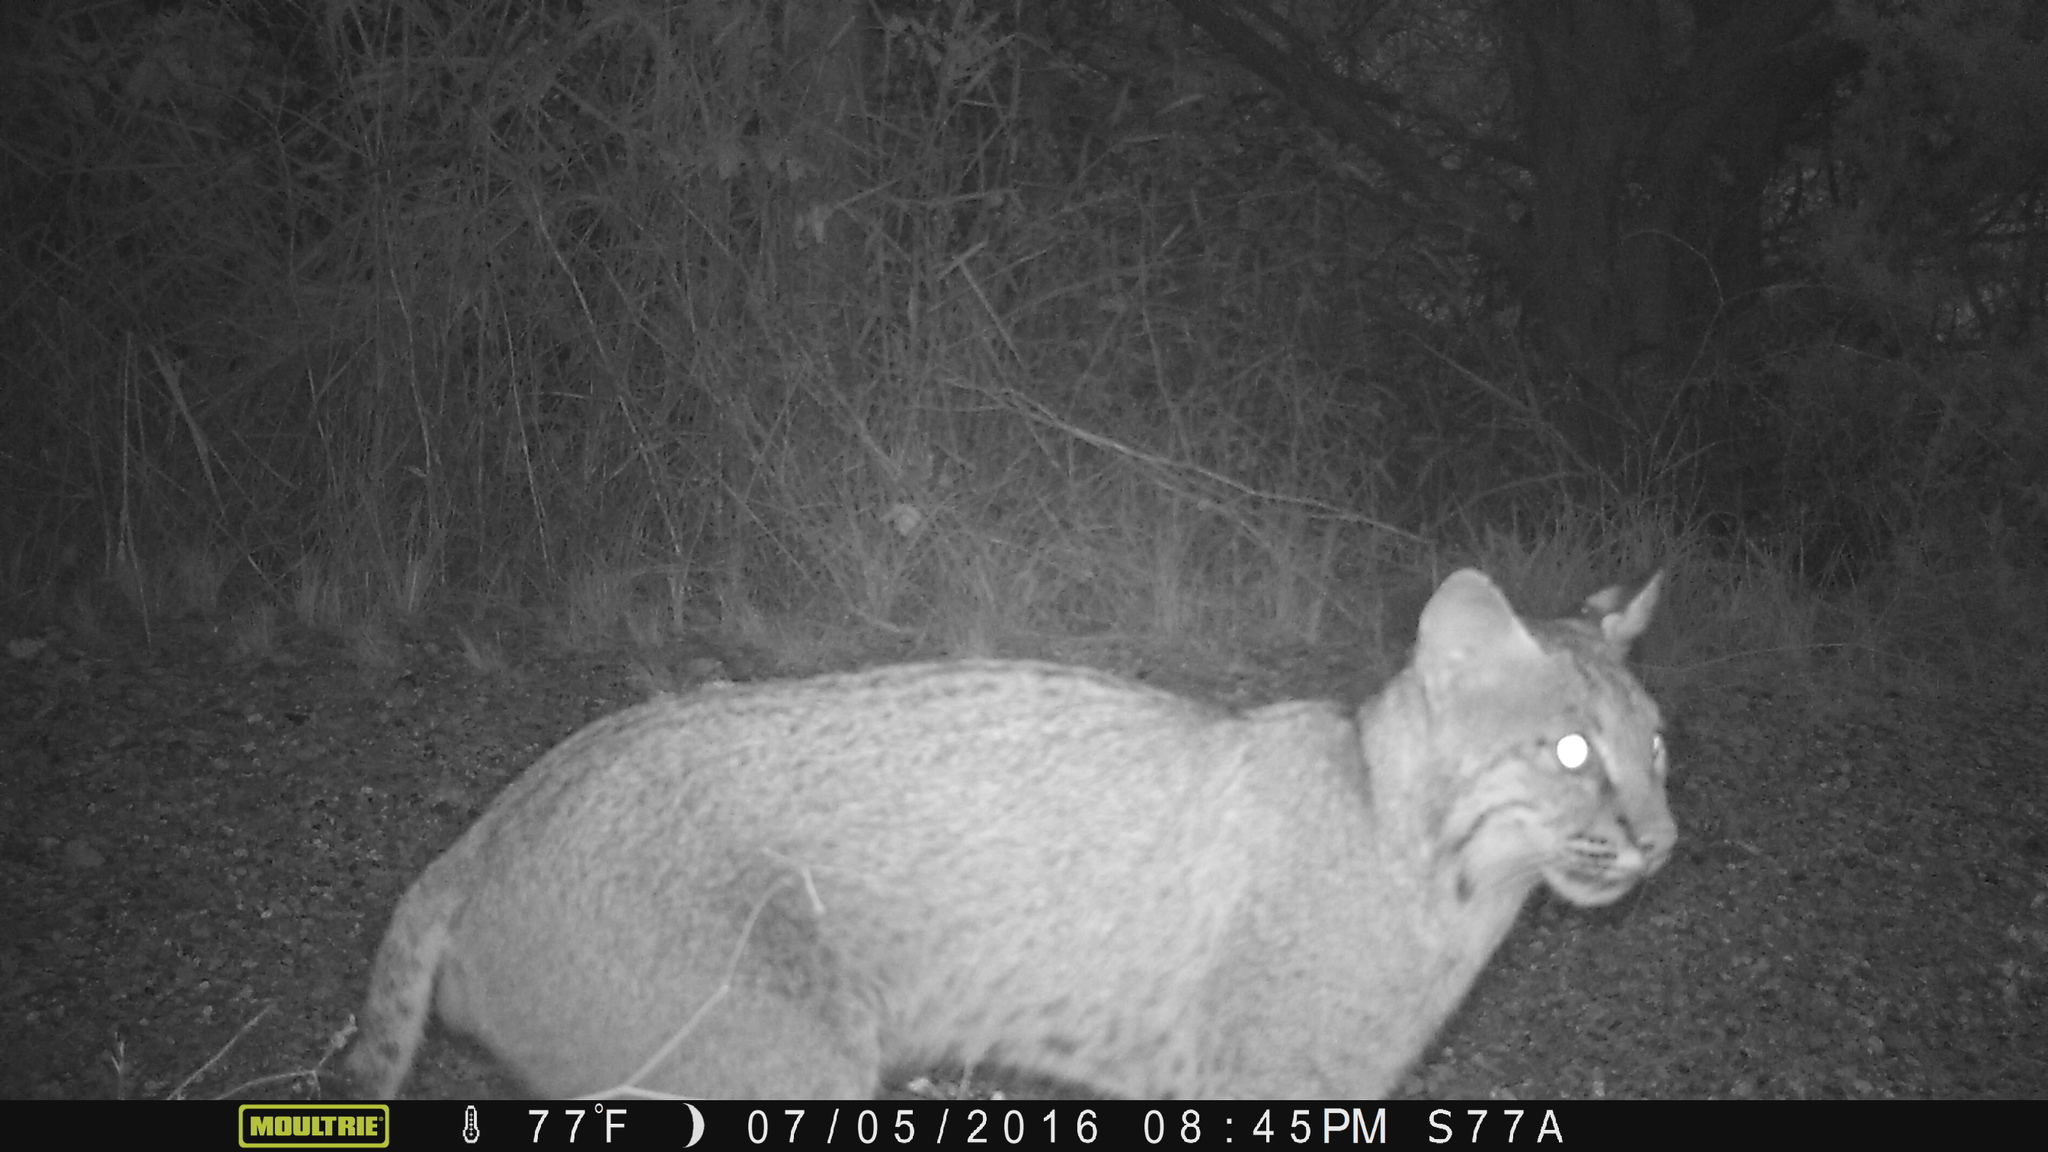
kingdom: Animalia
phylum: Chordata
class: Mammalia
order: Carnivora
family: Felidae
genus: Lynx
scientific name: Lynx rufus
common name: Bobcat
